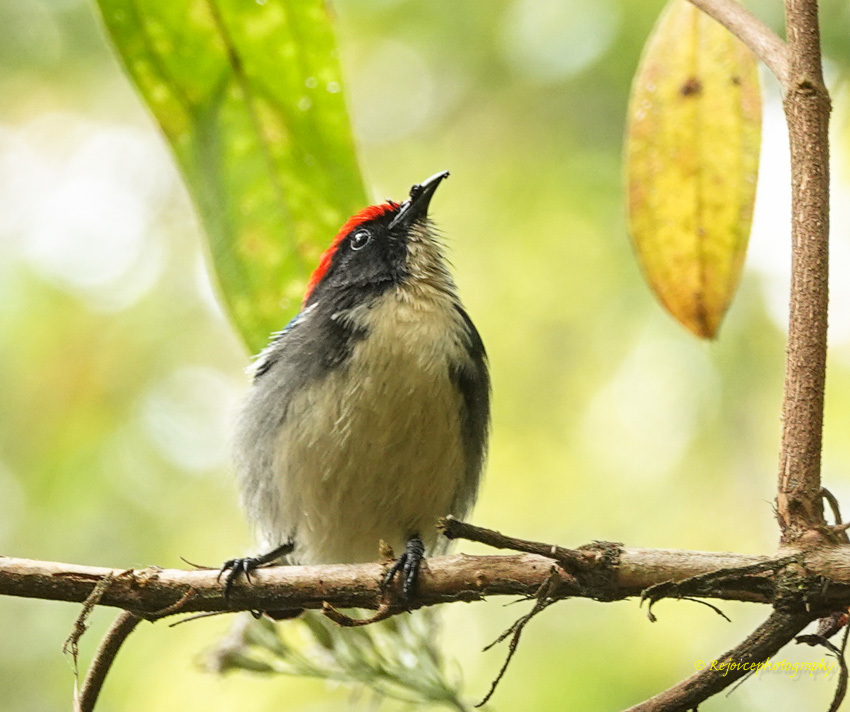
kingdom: Animalia
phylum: Chordata
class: Aves
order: Passeriformes
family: Dicaeidae
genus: Dicaeum
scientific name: Dicaeum cruentatum
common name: Scarlet-backed flowerpecker
